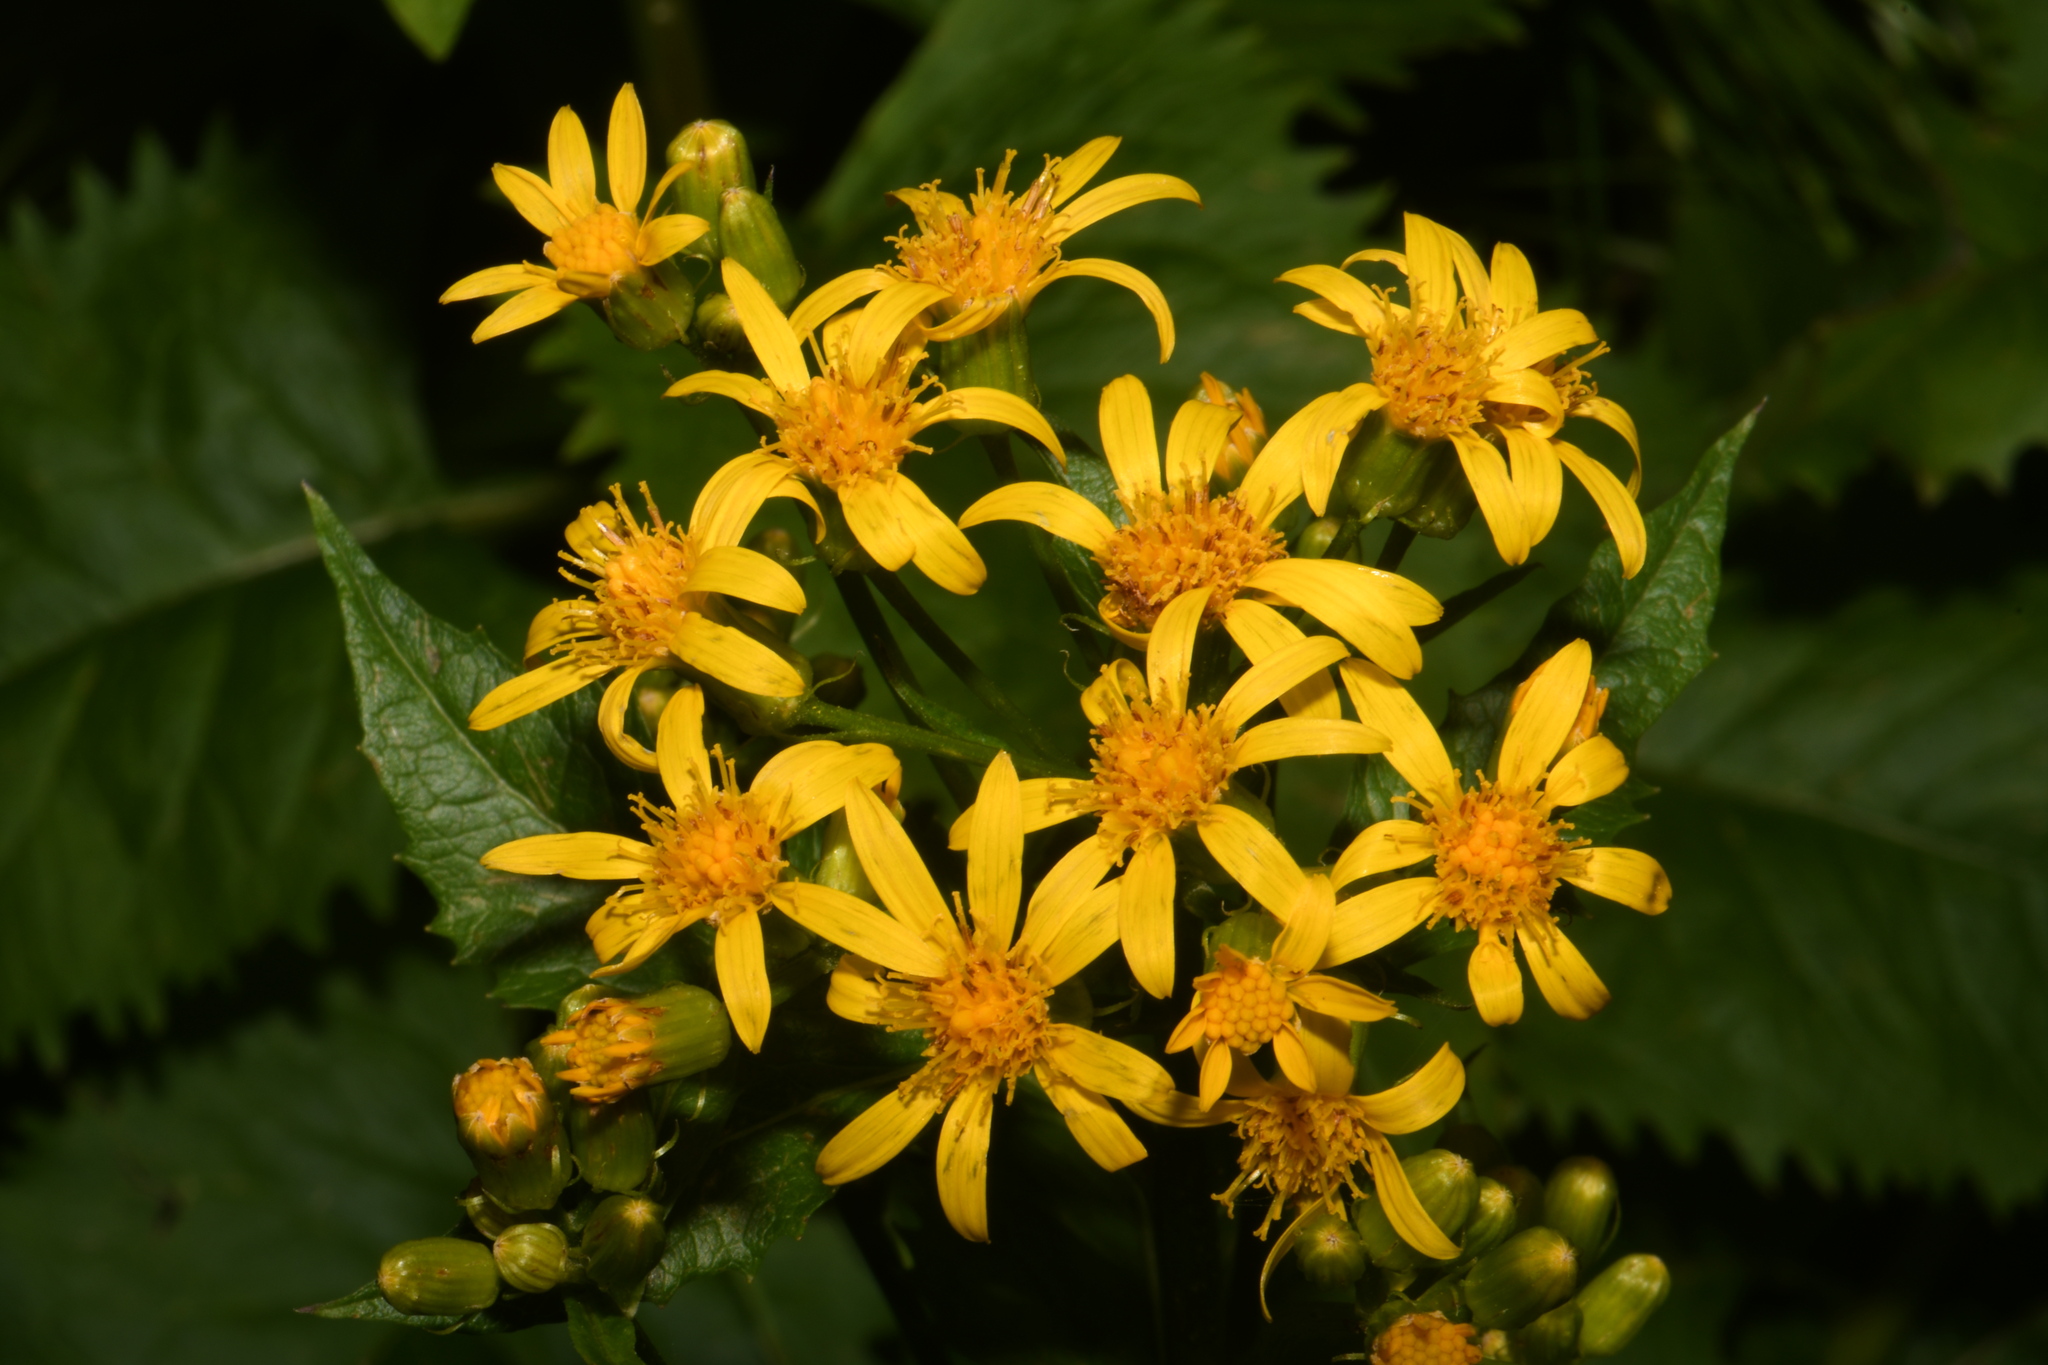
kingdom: Plantae
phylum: Tracheophyta
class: Magnoliopsida
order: Asterales
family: Asteraceae
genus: Senecio
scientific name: Senecio triangularis
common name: Arrowleaf butterweed
